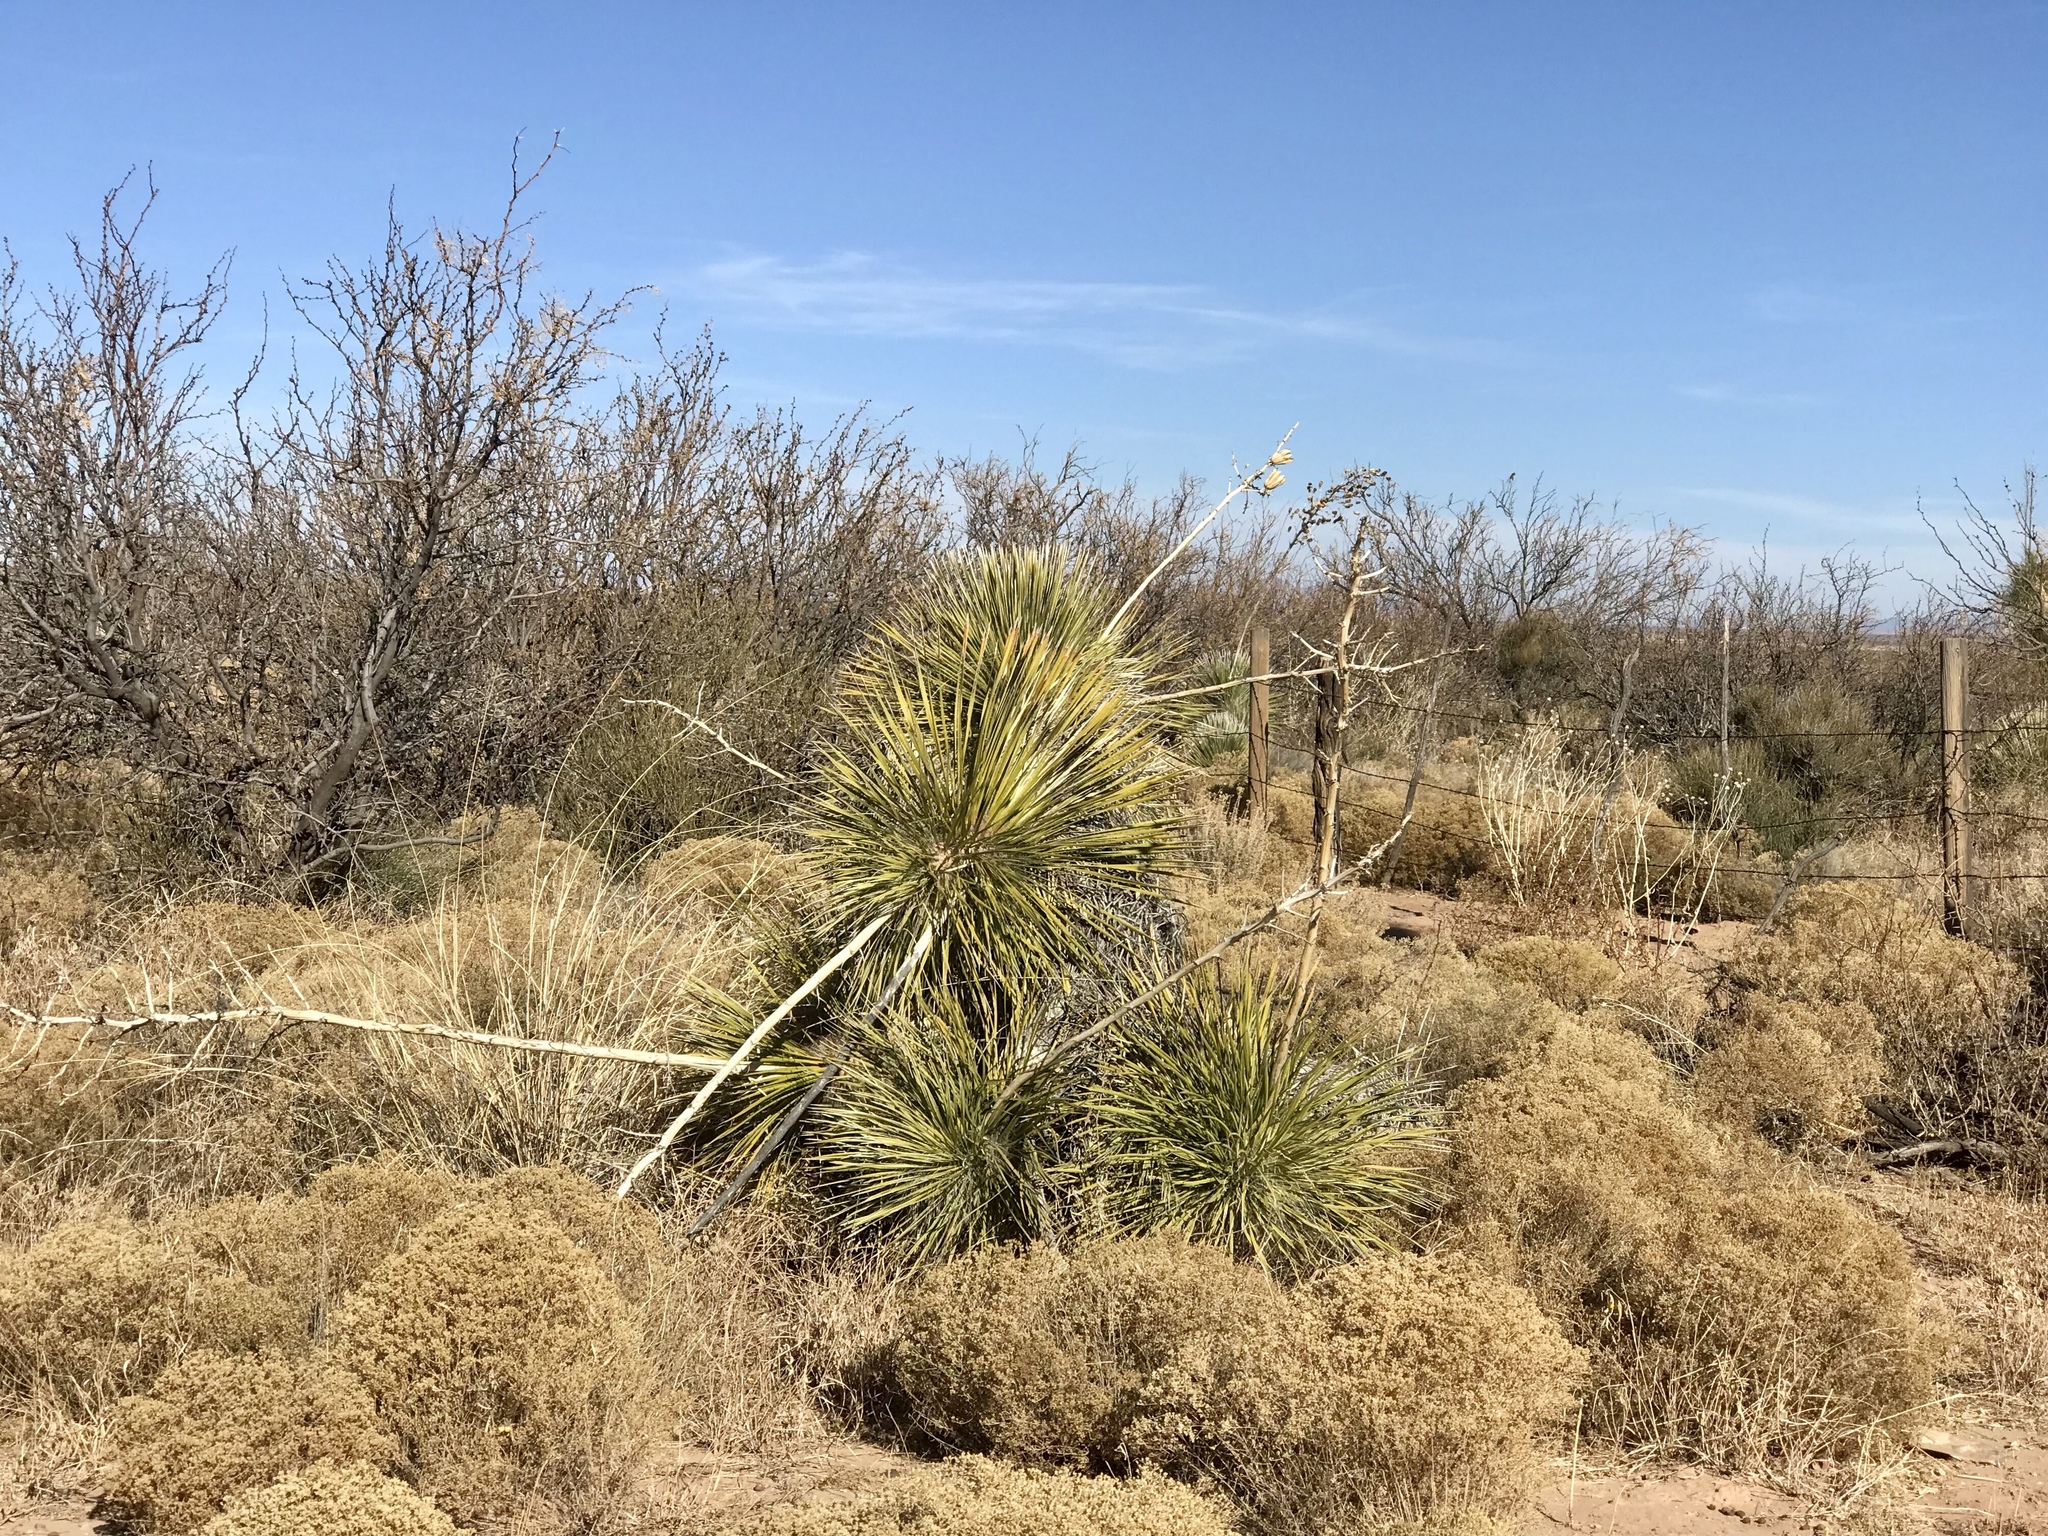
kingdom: Plantae
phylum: Tracheophyta
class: Liliopsida
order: Asparagales
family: Asparagaceae
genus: Yucca
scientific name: Yucca elata
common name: Palmella
